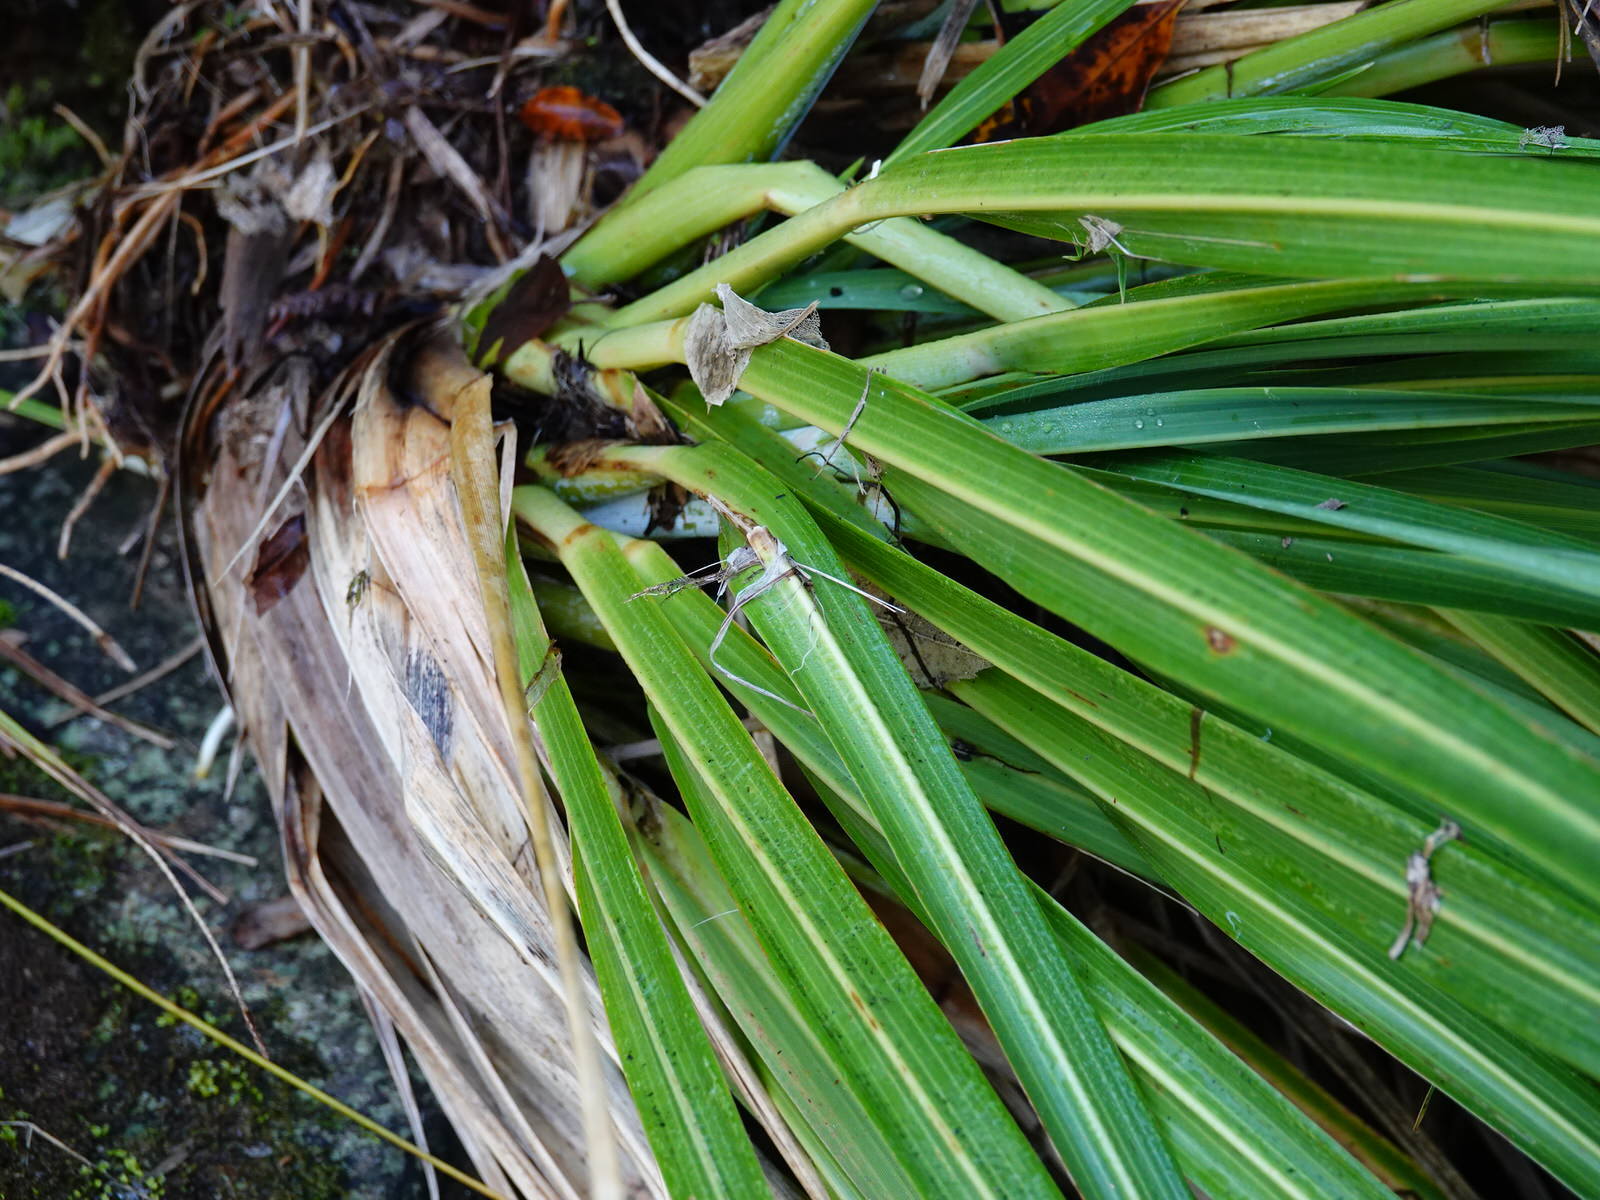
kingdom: Plantae
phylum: Tracheophyta
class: Liliopsida
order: Poales
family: Poaceae
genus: Austroderia
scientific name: Austroderia fulvida
